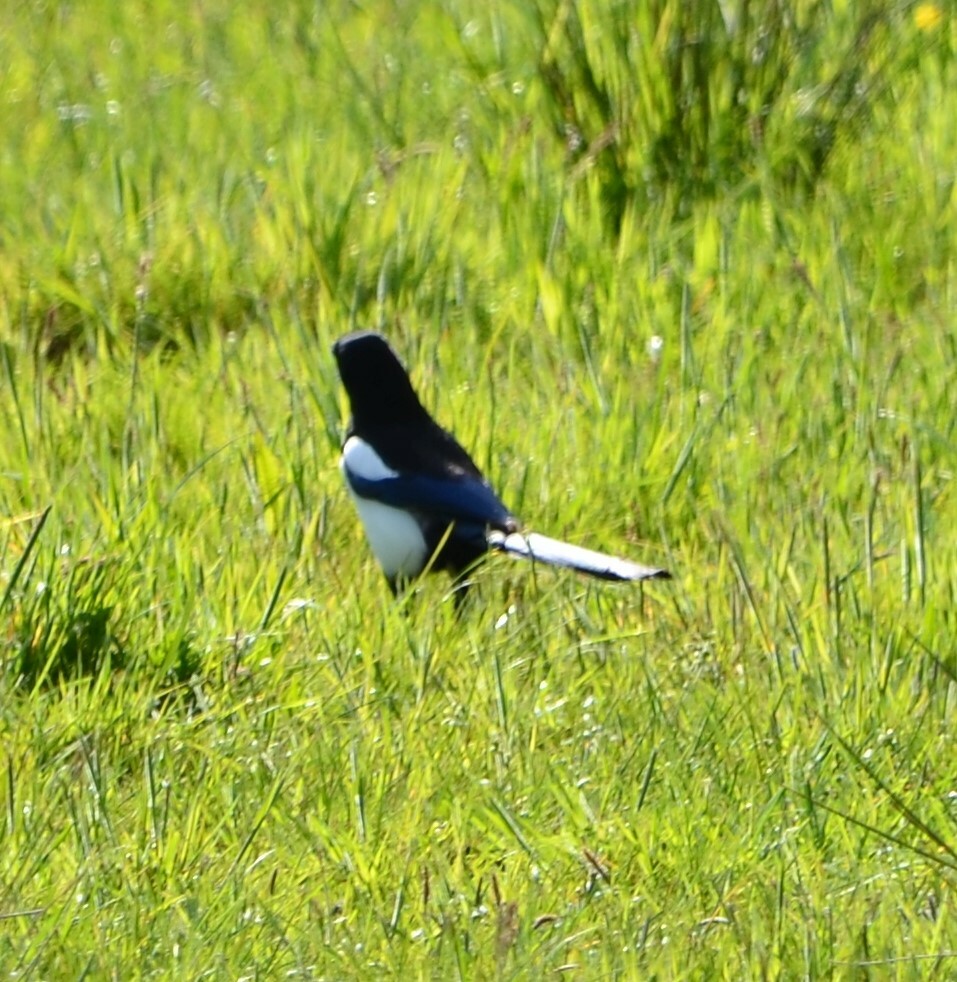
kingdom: Animalia
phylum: Chordata
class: Aves
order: Passeriformes
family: Corvidae
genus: Pica
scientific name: Pica pica
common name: Eurasian magpie
